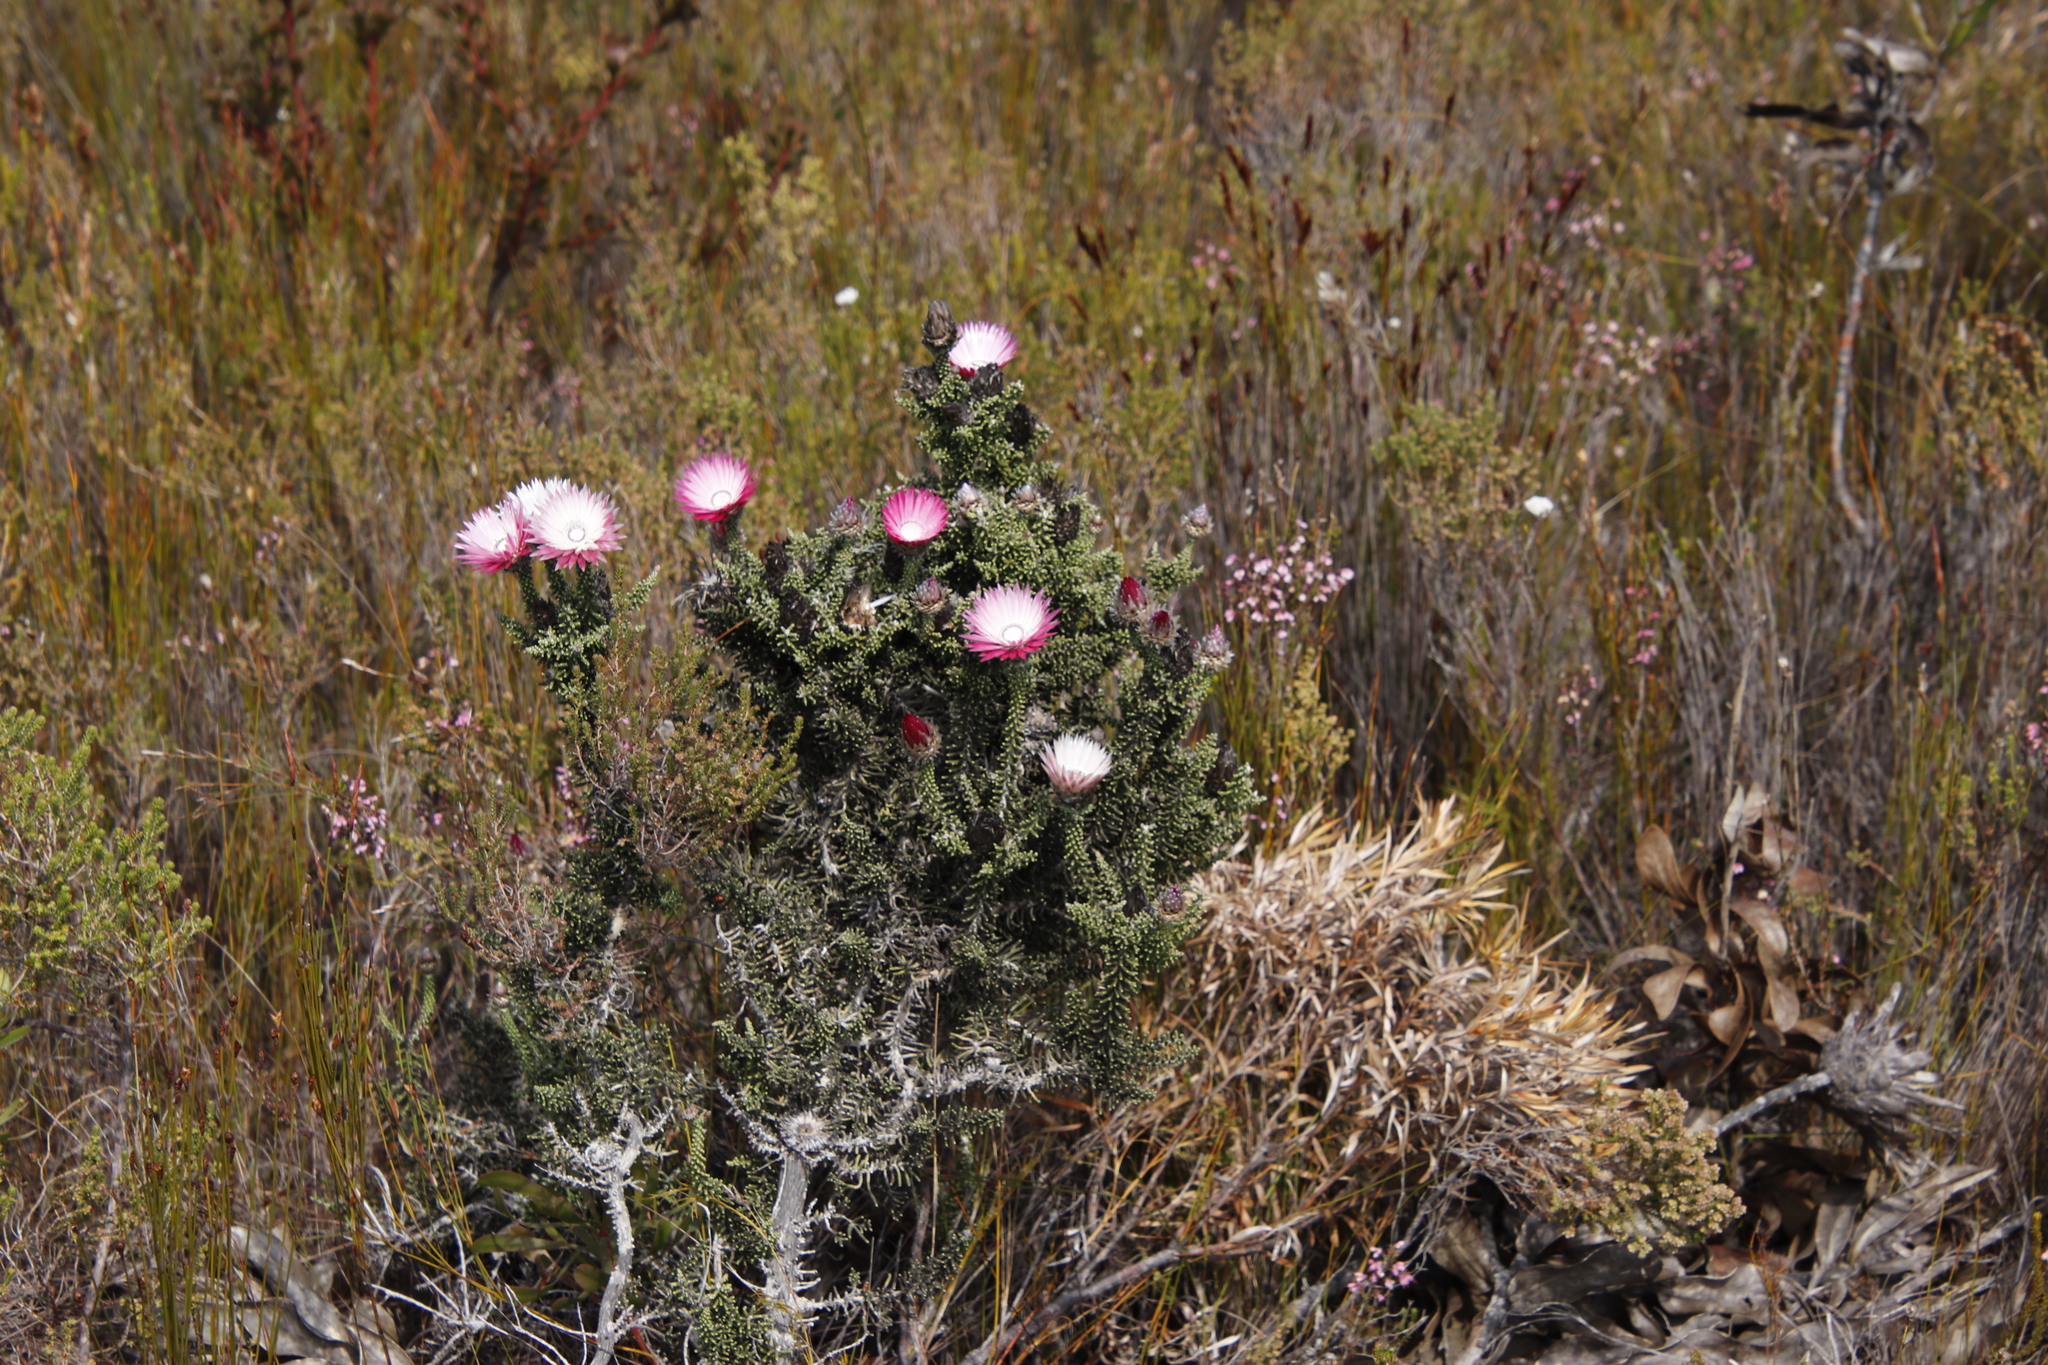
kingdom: Plantae
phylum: Tracheophyta
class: Magnoliopsida
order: Asterales
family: Asteraceae
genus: Phaenocoma
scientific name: Phaenocoma prolifera
